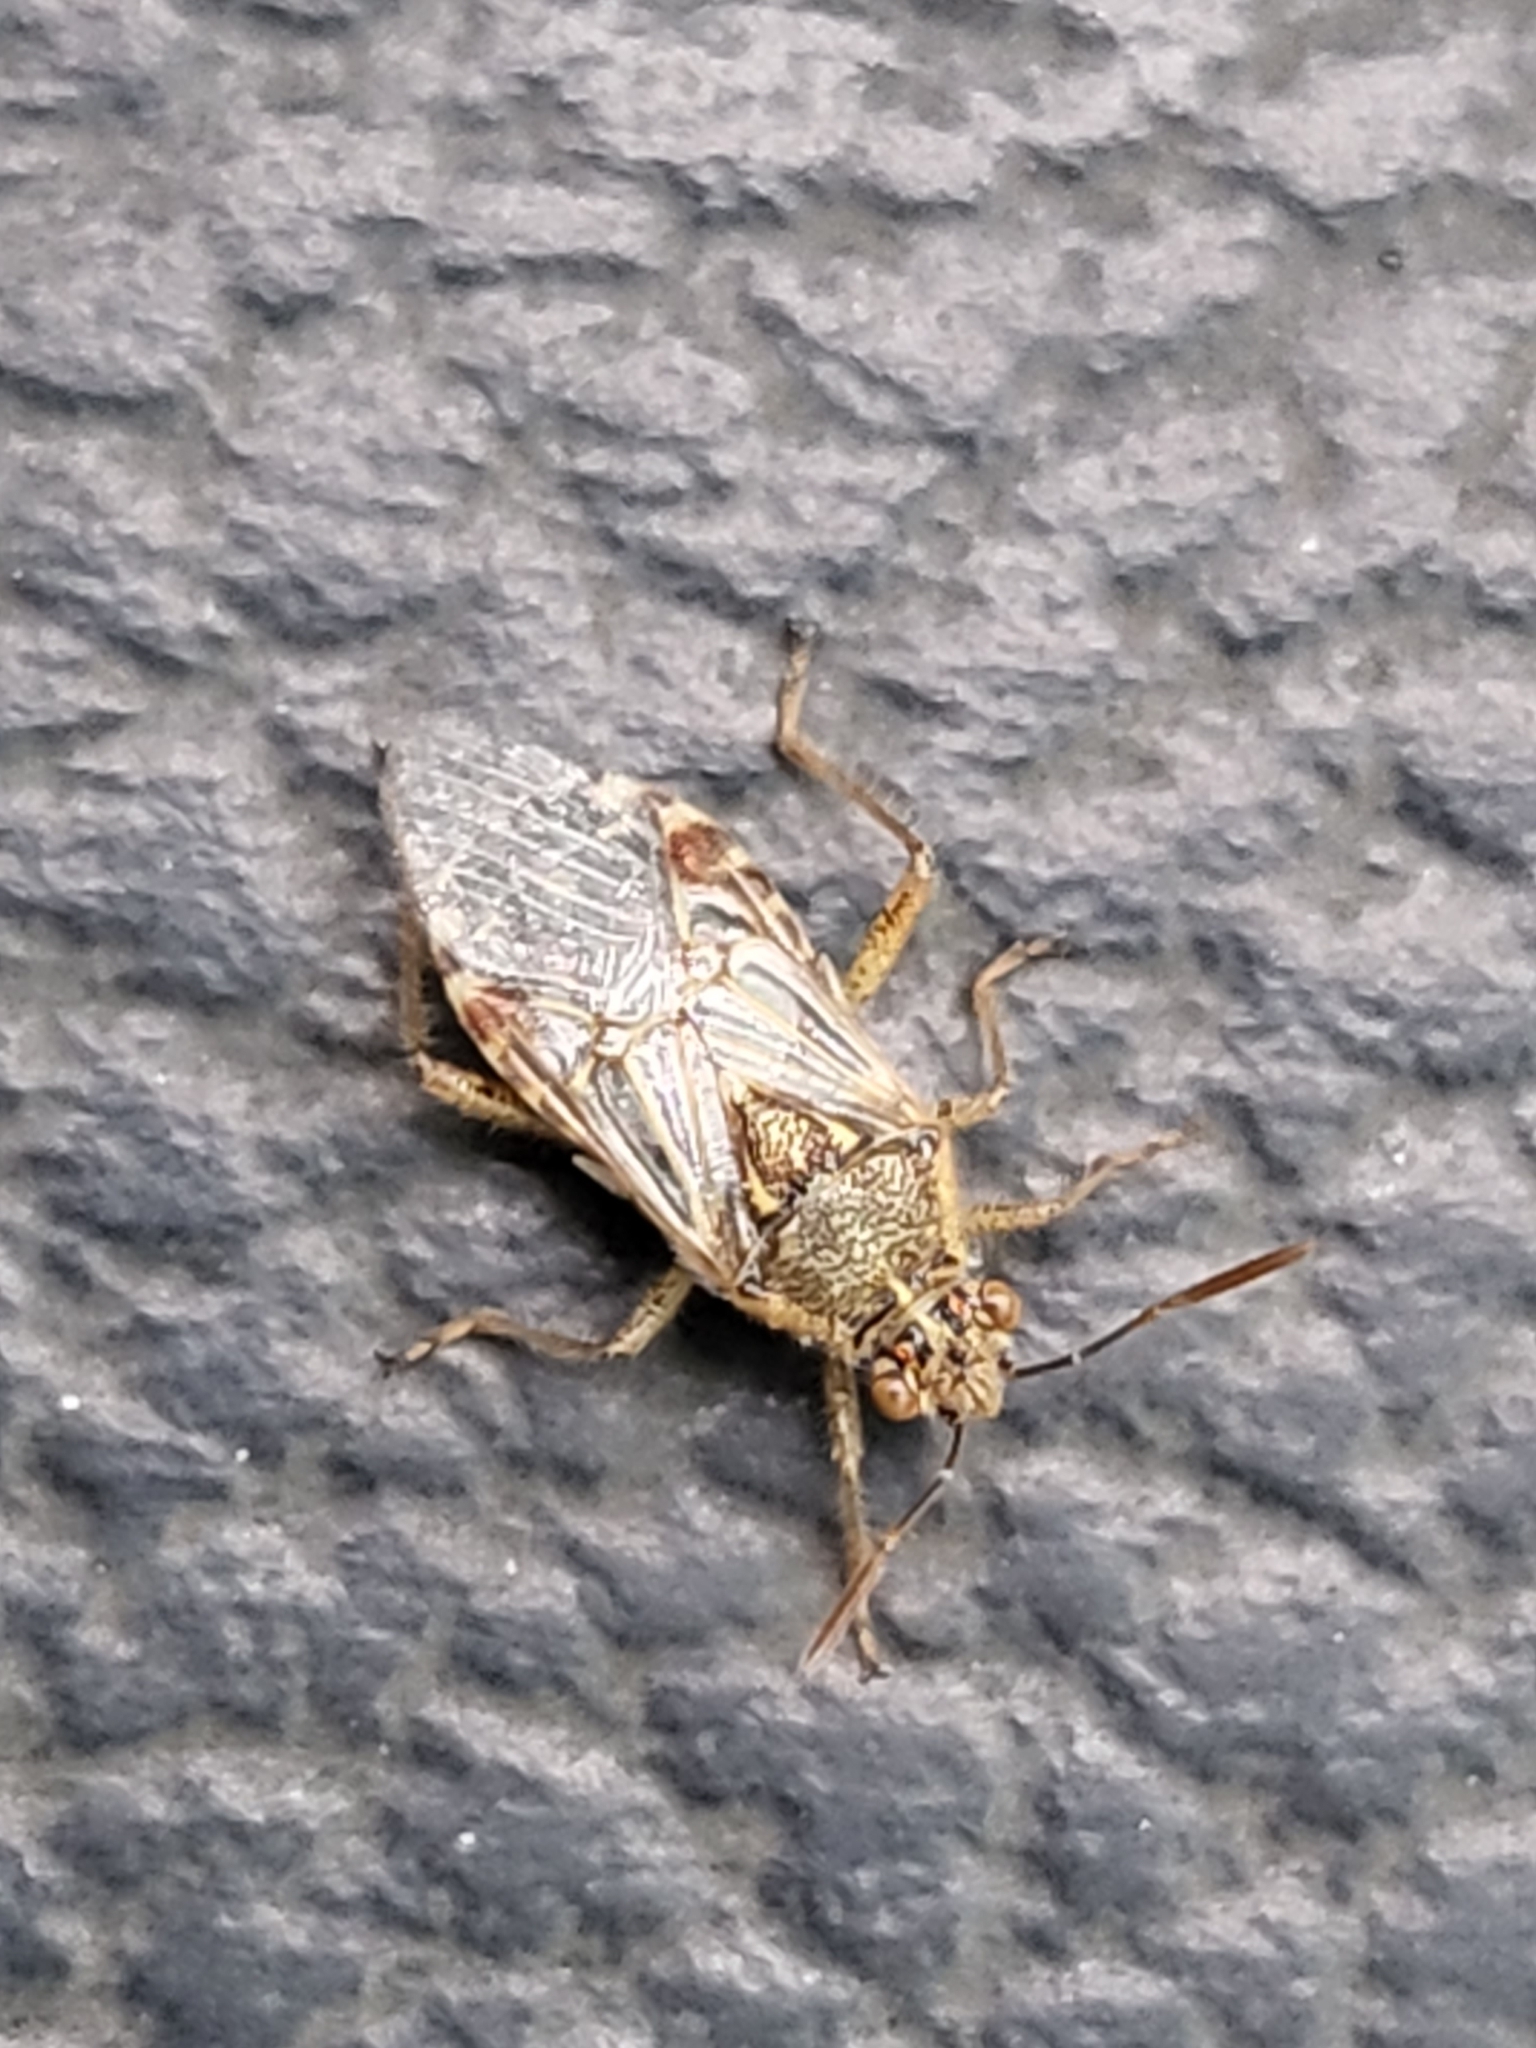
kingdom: Animalia
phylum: Arthropoda
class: Insecta
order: Hemiptera
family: Rhopalidae
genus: Liorhyssus
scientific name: Liorhyssus hyalinus
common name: Scentless plant bug
